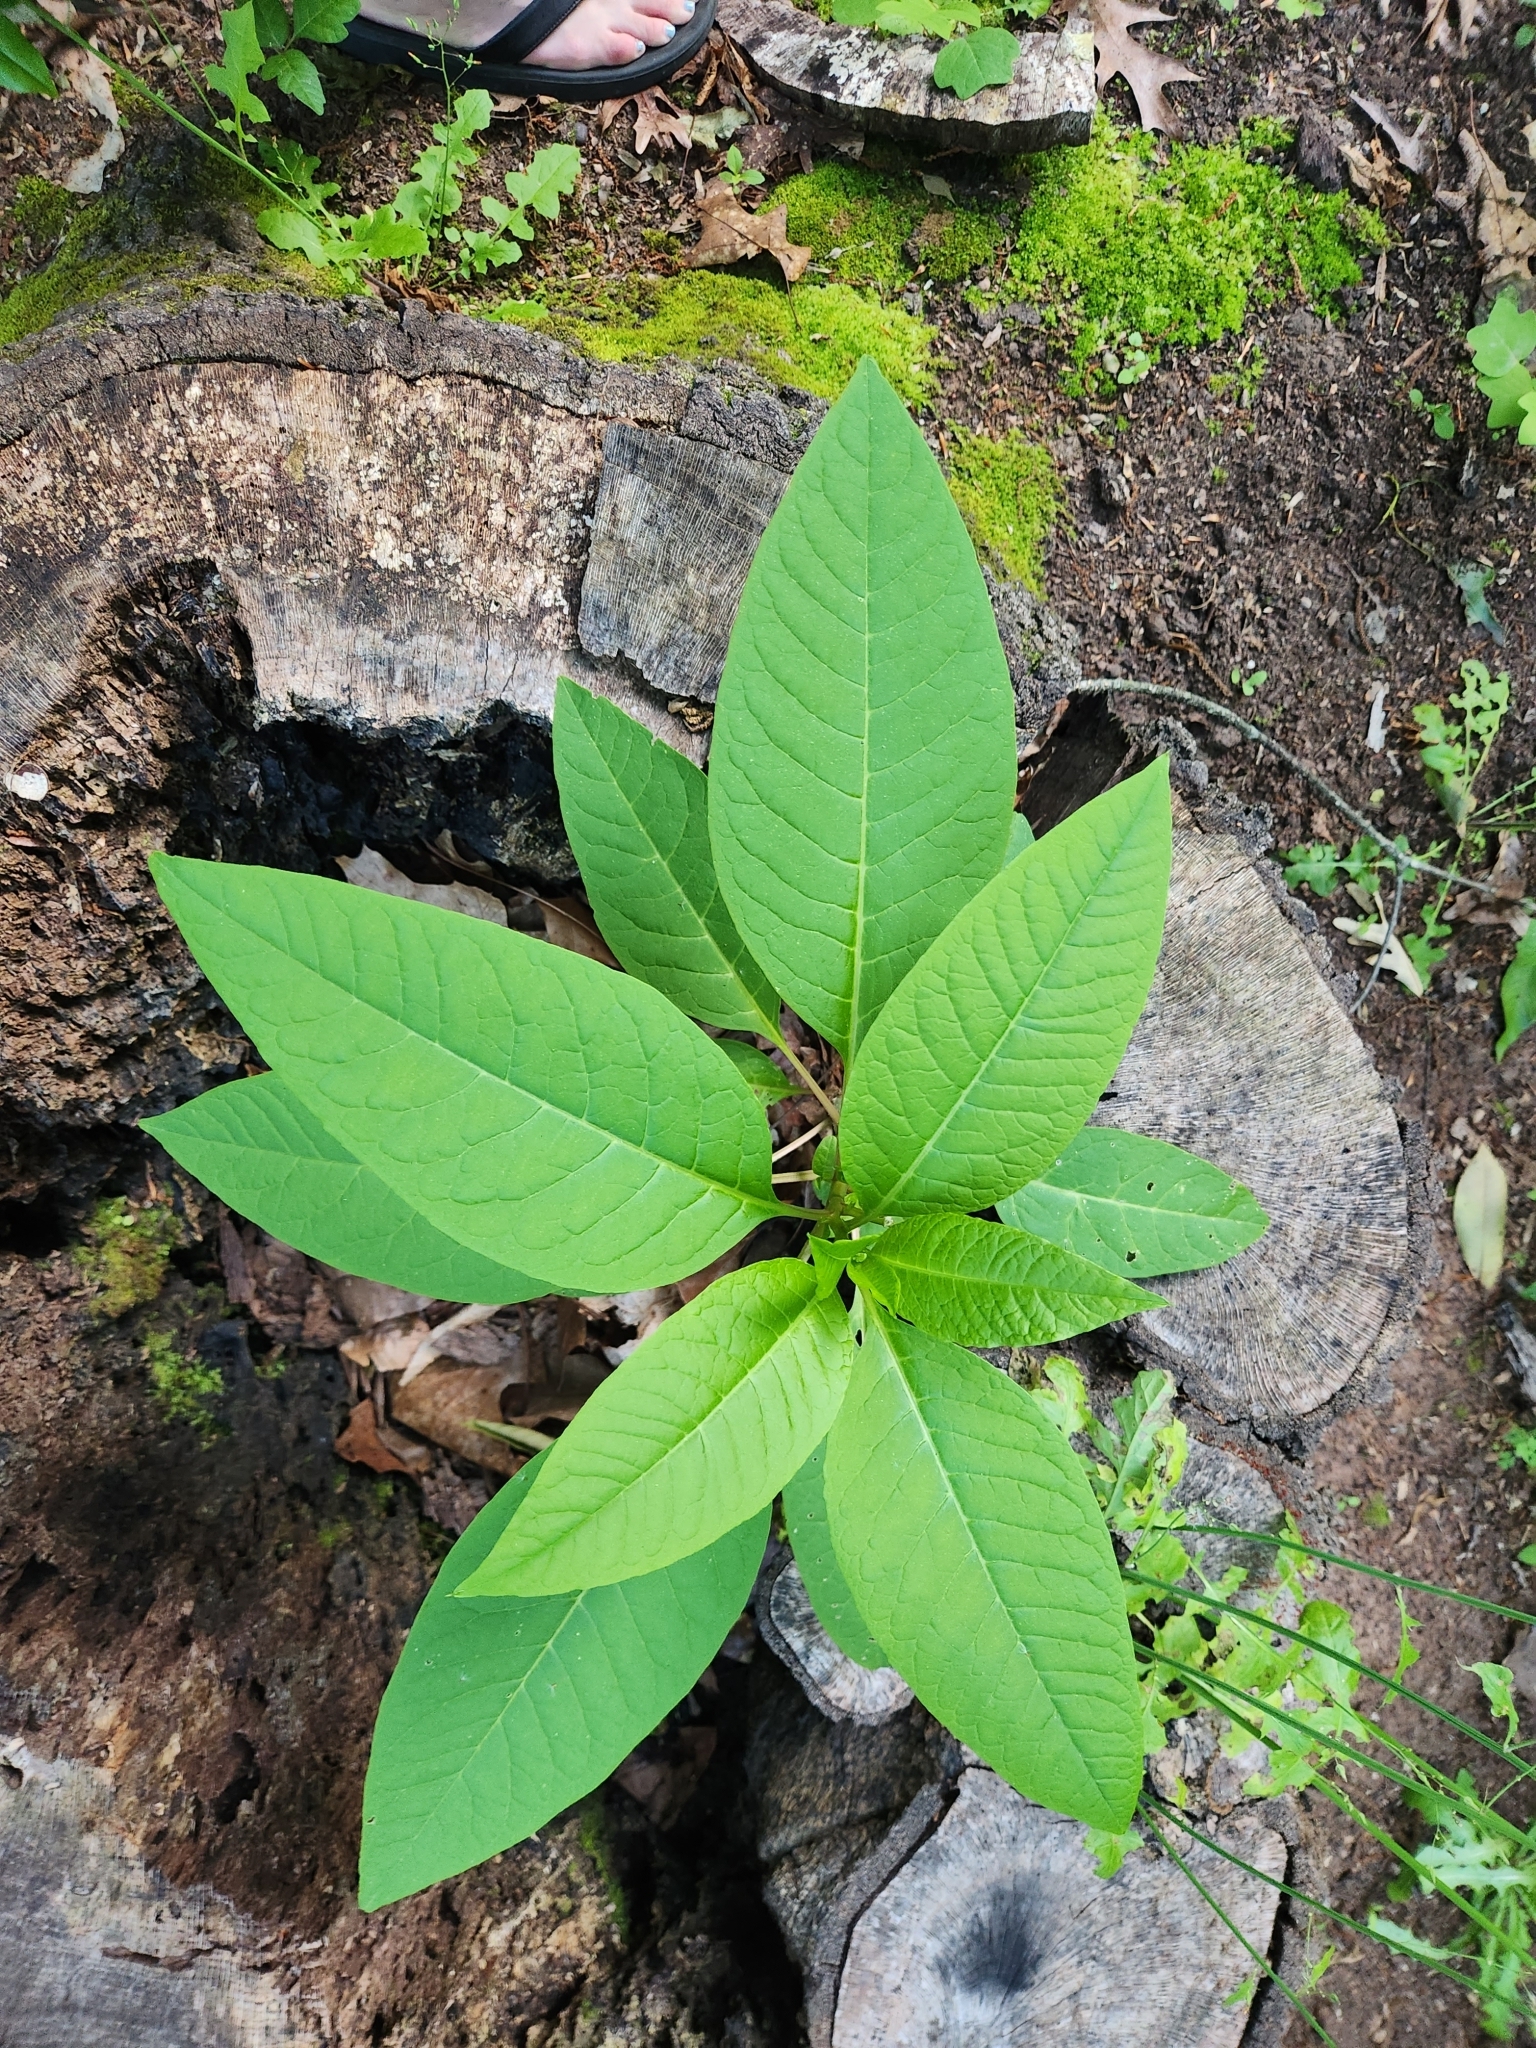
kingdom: Plantae
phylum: Tracheophyta
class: Magnoliopsida
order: Caryophyllales
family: Phytolaccaceae
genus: Phytolacca
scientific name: Phytolacca americana
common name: American pokeweed
